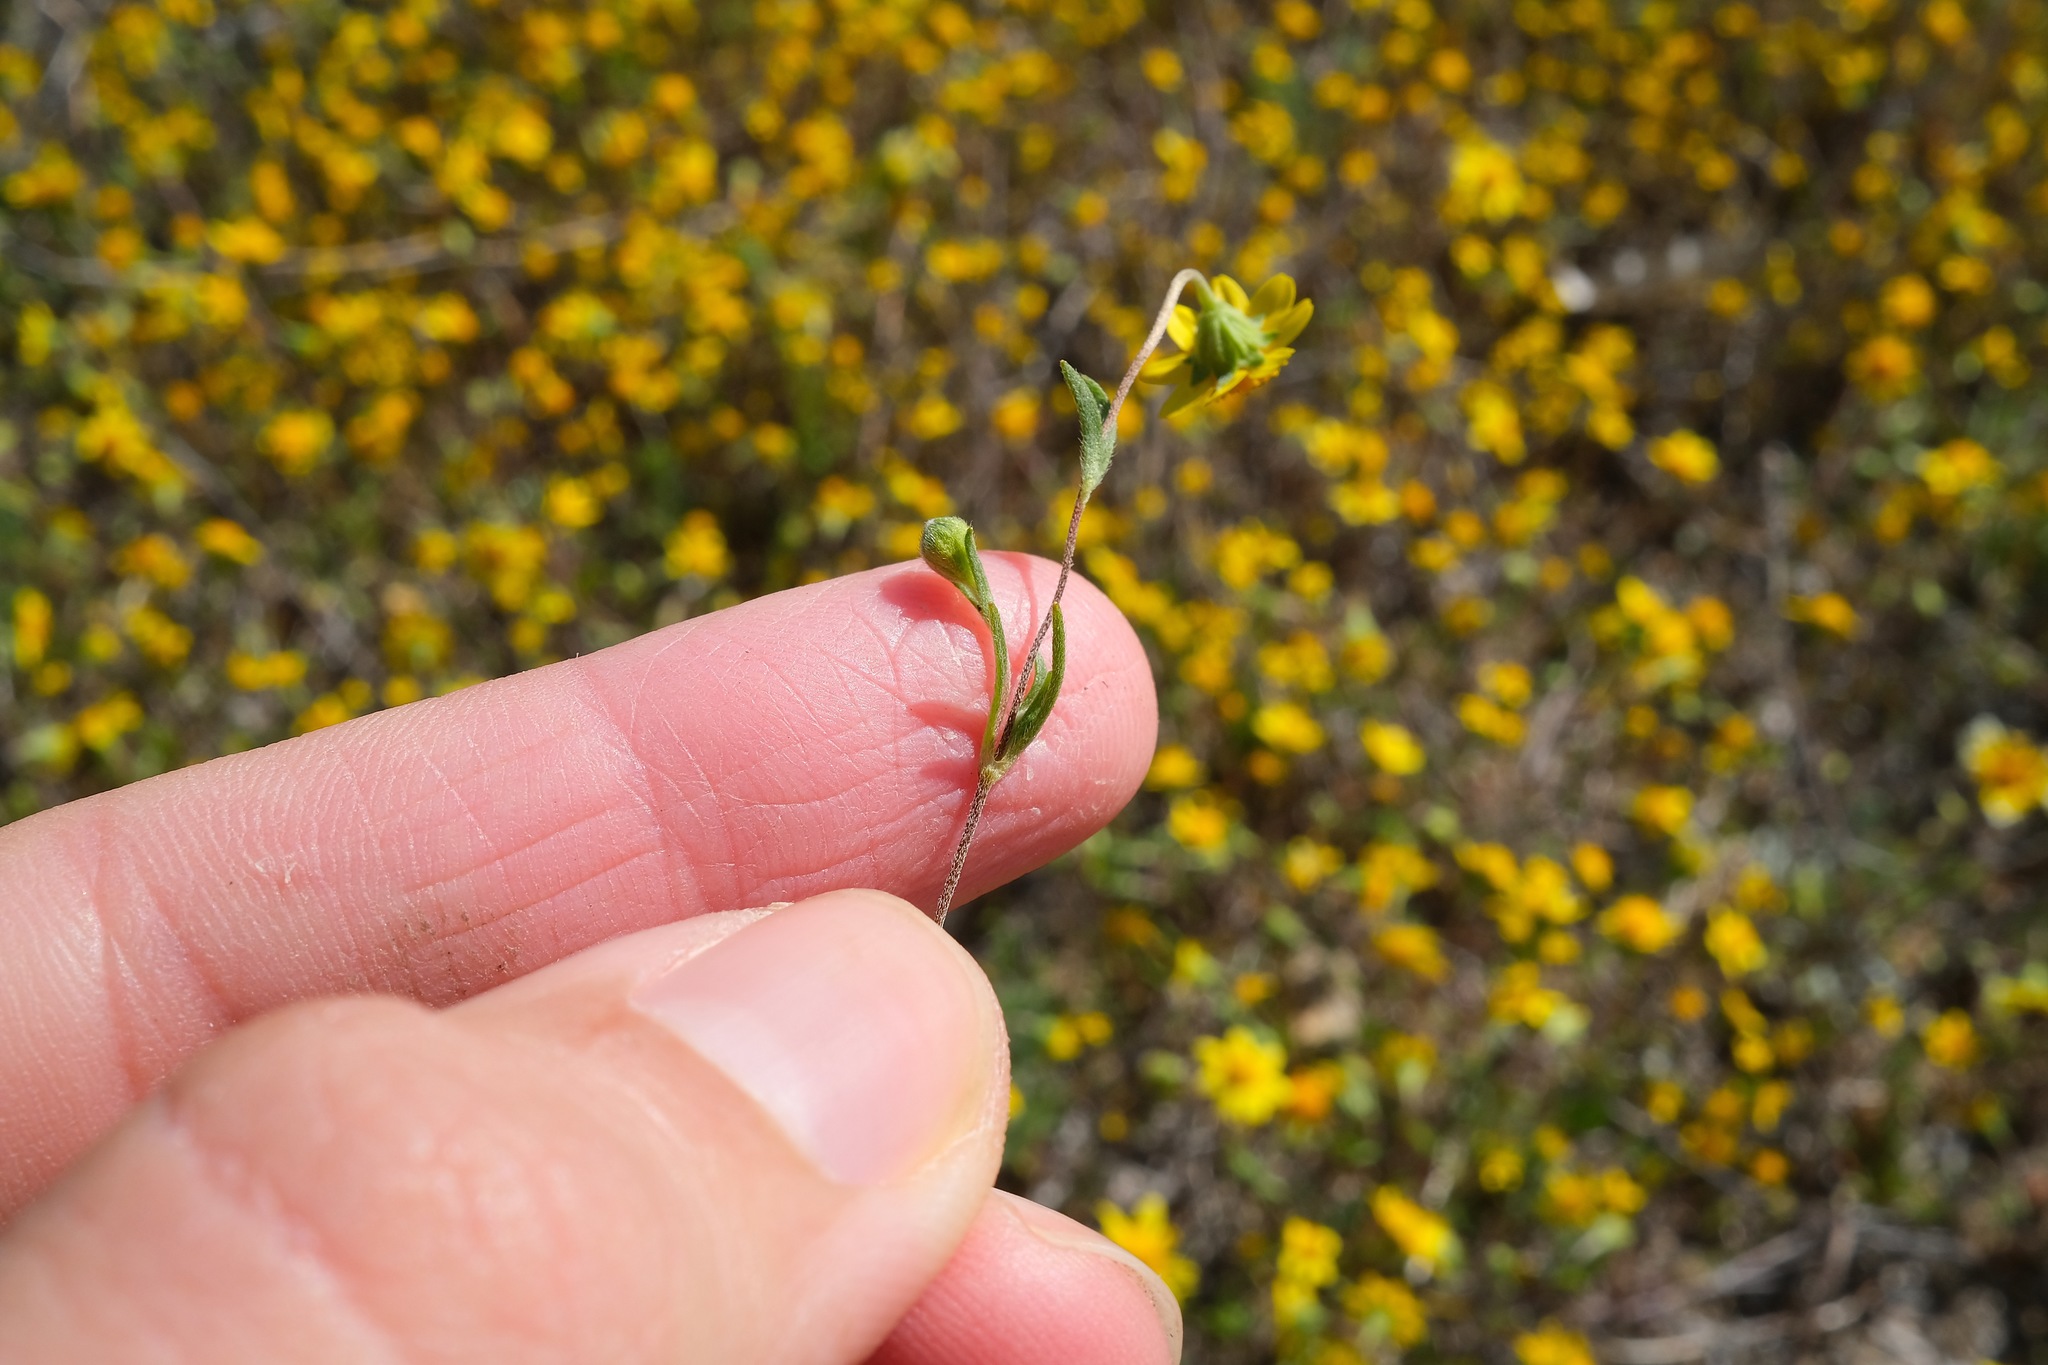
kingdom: Plantae
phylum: Tracheophyta
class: Magnoliopsida
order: Asterales
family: Asteraceae
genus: Lasthenia
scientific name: Lasthenia gracilis
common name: Common goldfields
